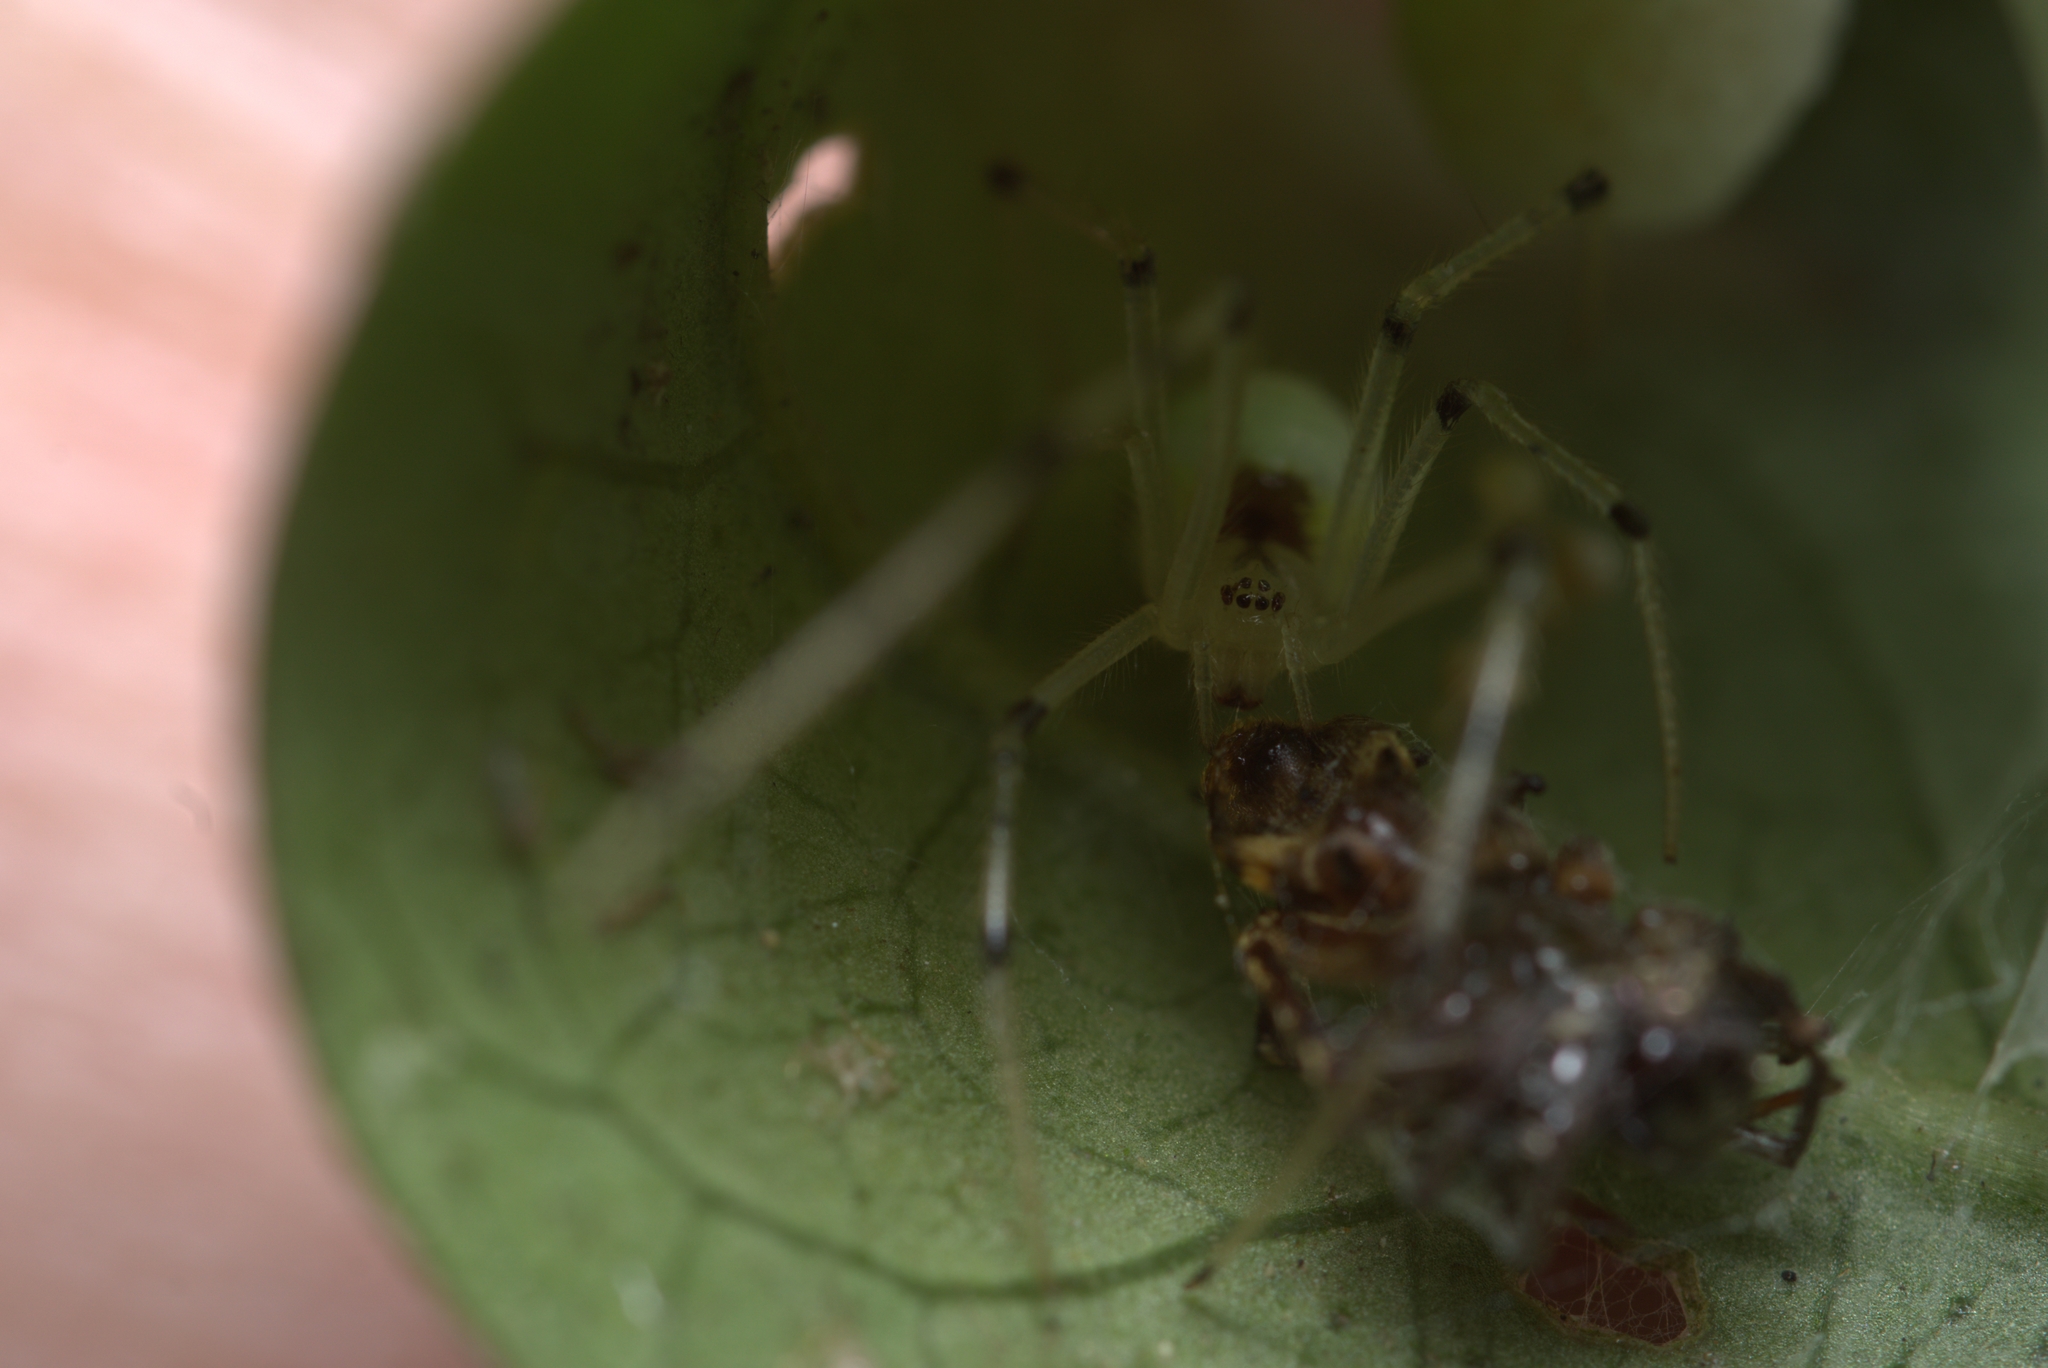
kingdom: Animalia
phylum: Arthropoda
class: Arachnida
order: Araneae
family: Theridiidae
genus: Theridion
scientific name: Theridion calcynatum
